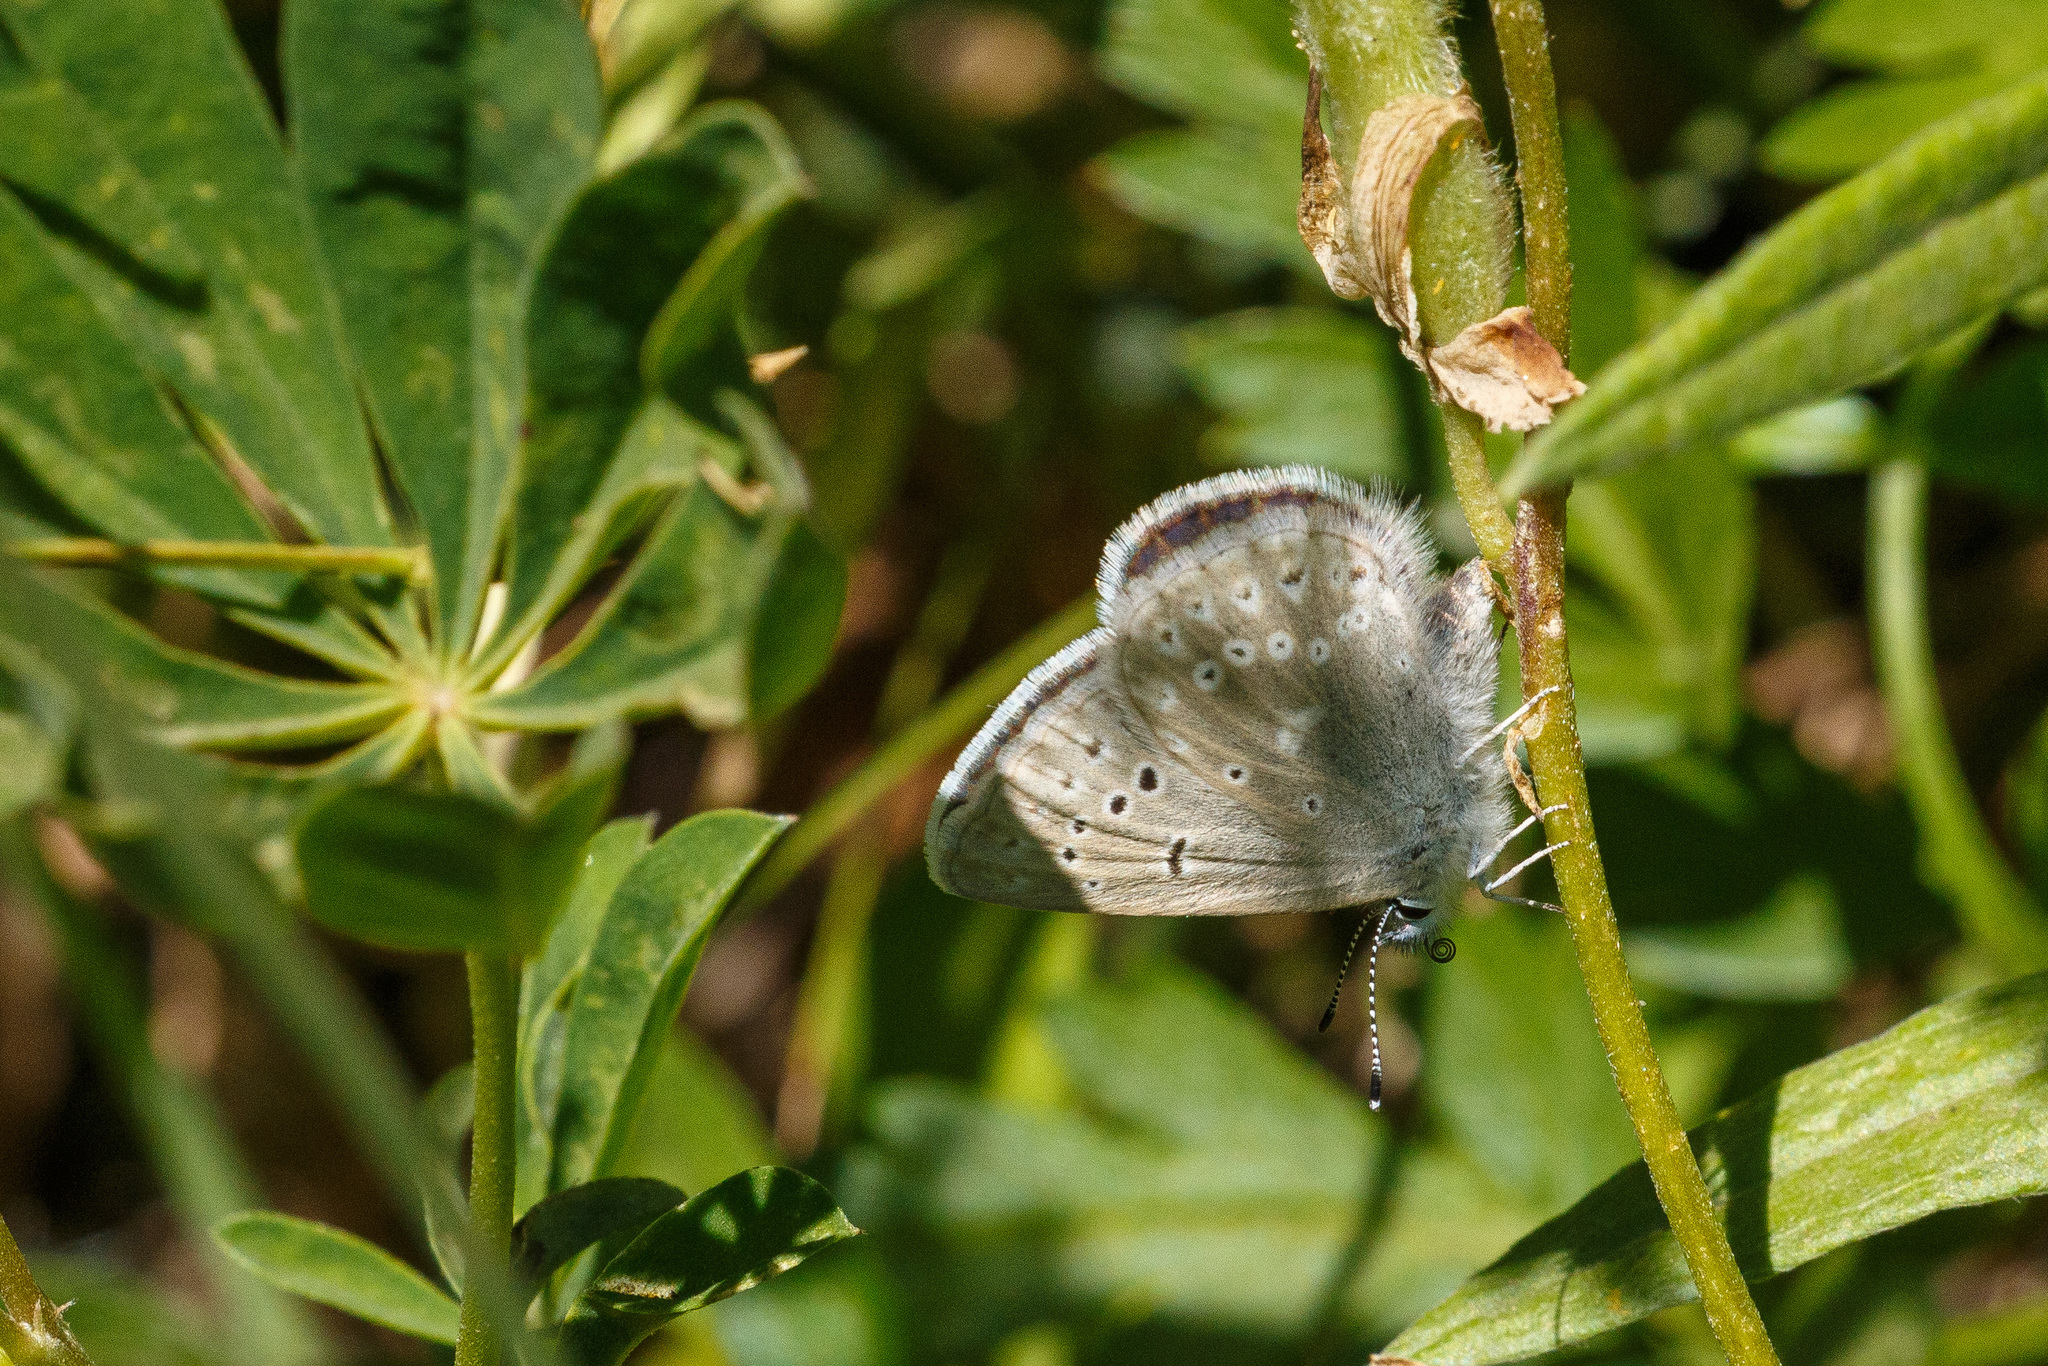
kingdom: Animalia
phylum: Arthropoda
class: Insecta
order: Lepidoptera
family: Lycaenidae
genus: Icaricia
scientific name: Icaricia icarioides
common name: Boisduval's blue
